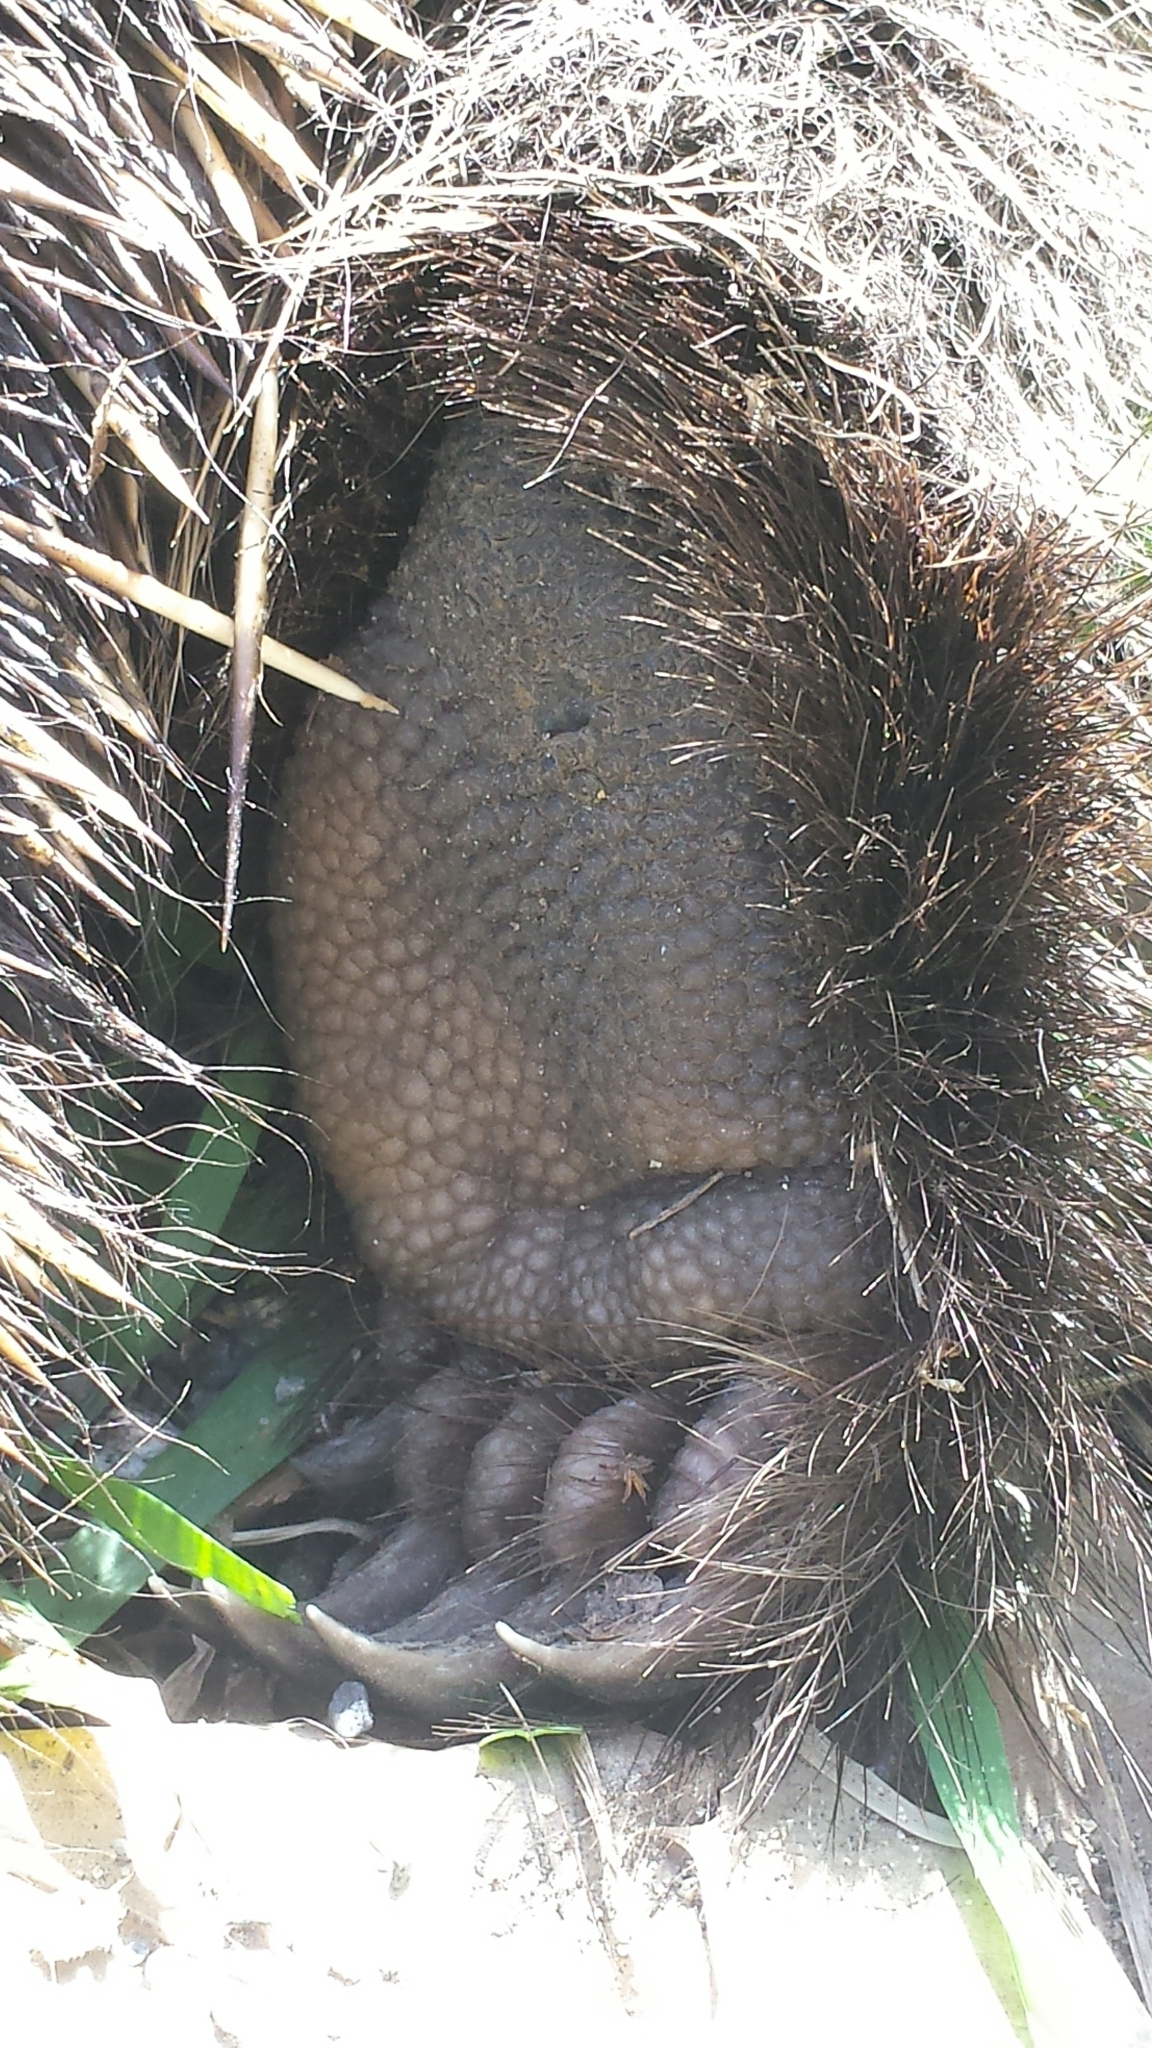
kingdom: Animalia
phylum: Chordata
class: Mammalia
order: Rodentia
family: Erethizontidae
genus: Erethizon
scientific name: Erethizon dorsatus
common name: North american porcupine
